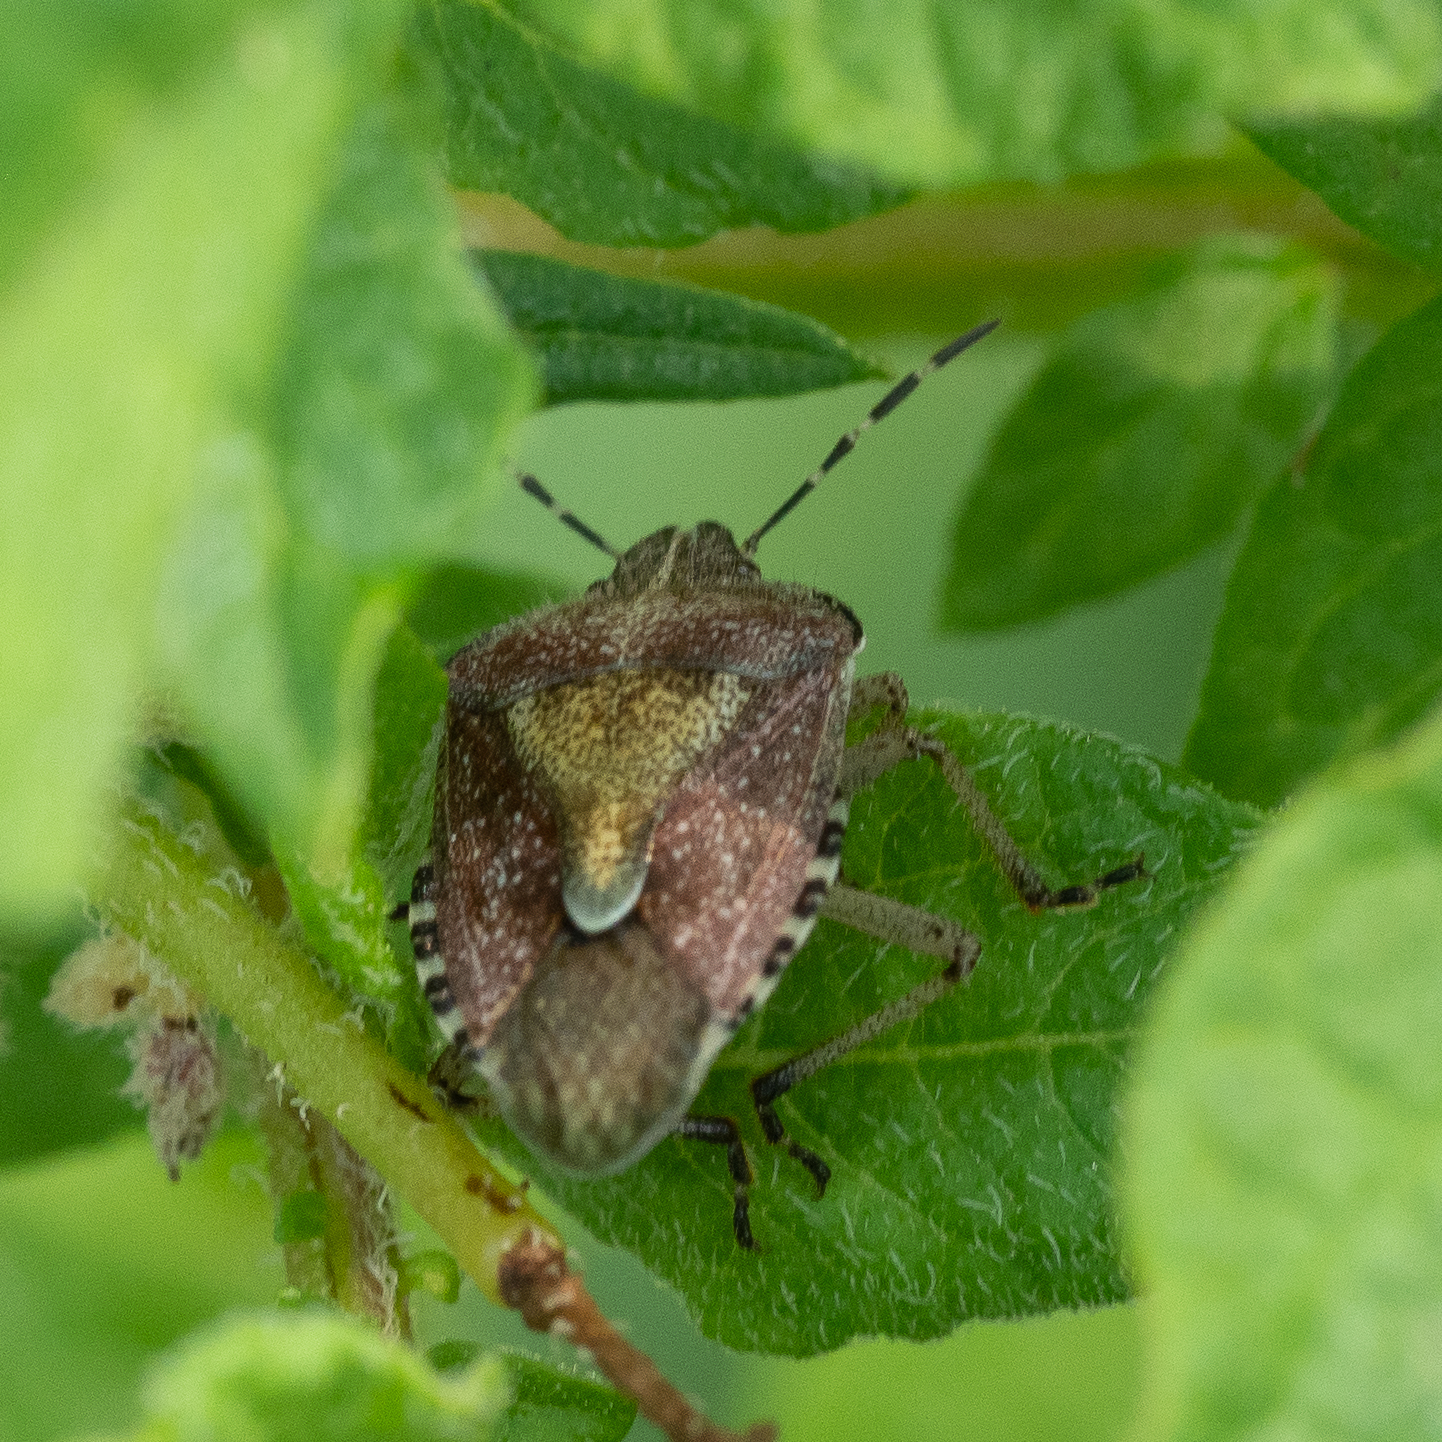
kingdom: Animalia
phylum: Arthropoda
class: Insecta
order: Hemiptera
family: Pentatomidae
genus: Dolycoris
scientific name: Dolycoris baccarum
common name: Sloe bug
